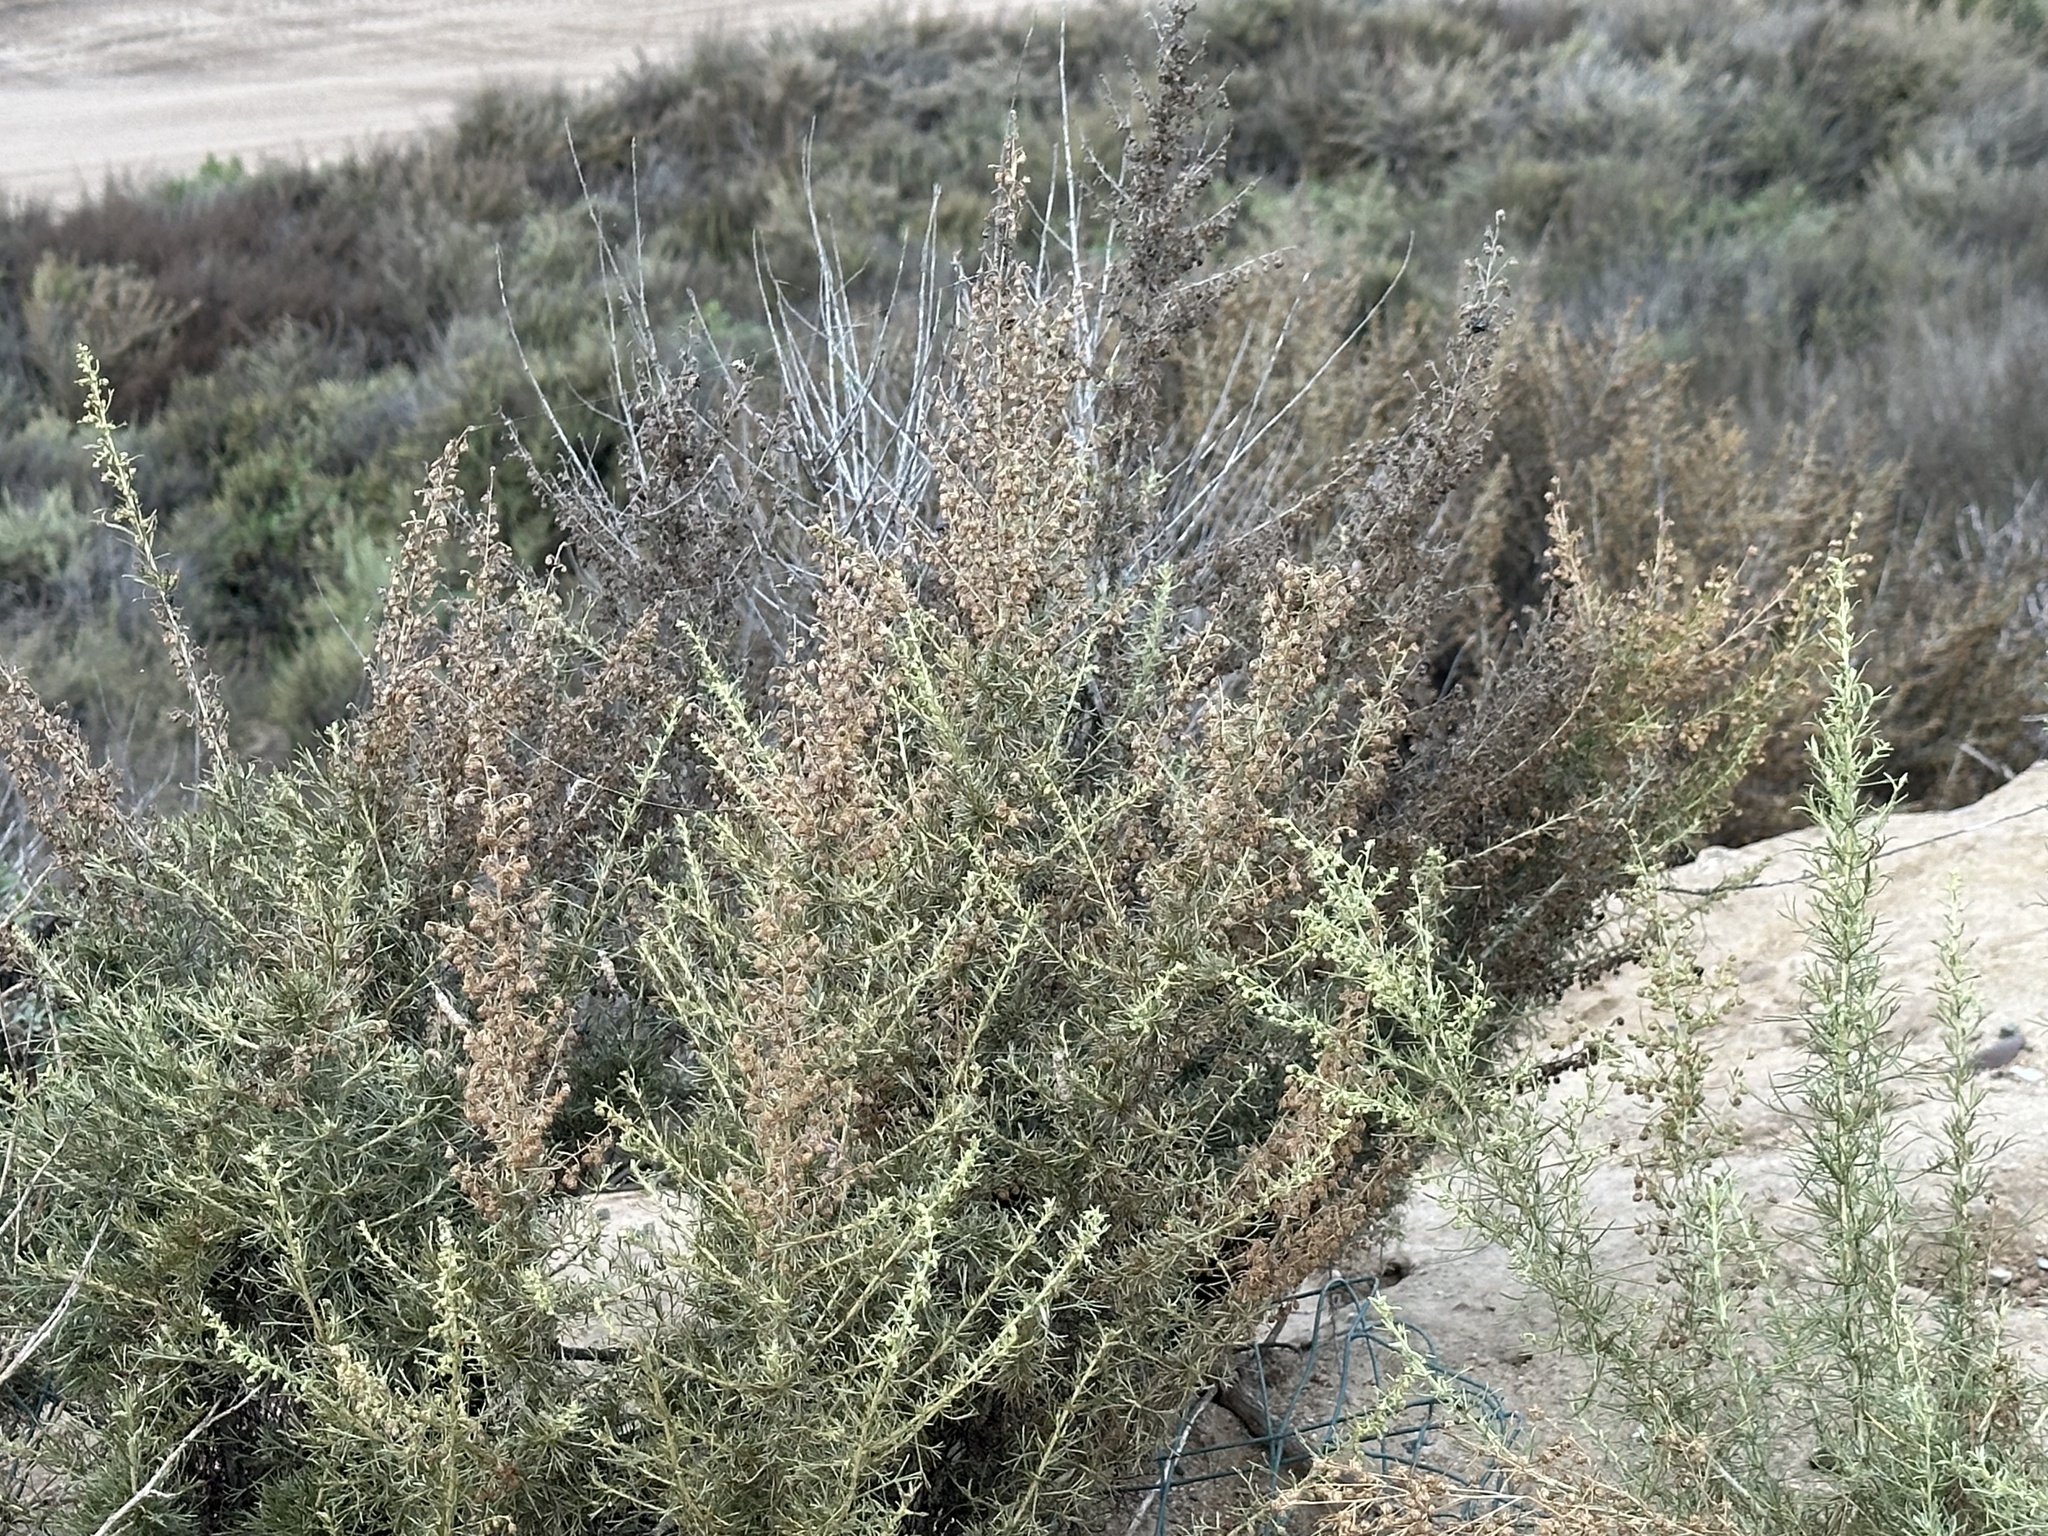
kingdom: Plantae
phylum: Tracheophyta
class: Magnoliopsida
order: Asterales
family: Asteraceae
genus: Artemisia
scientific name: Artemisia californica
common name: California sagebrush
